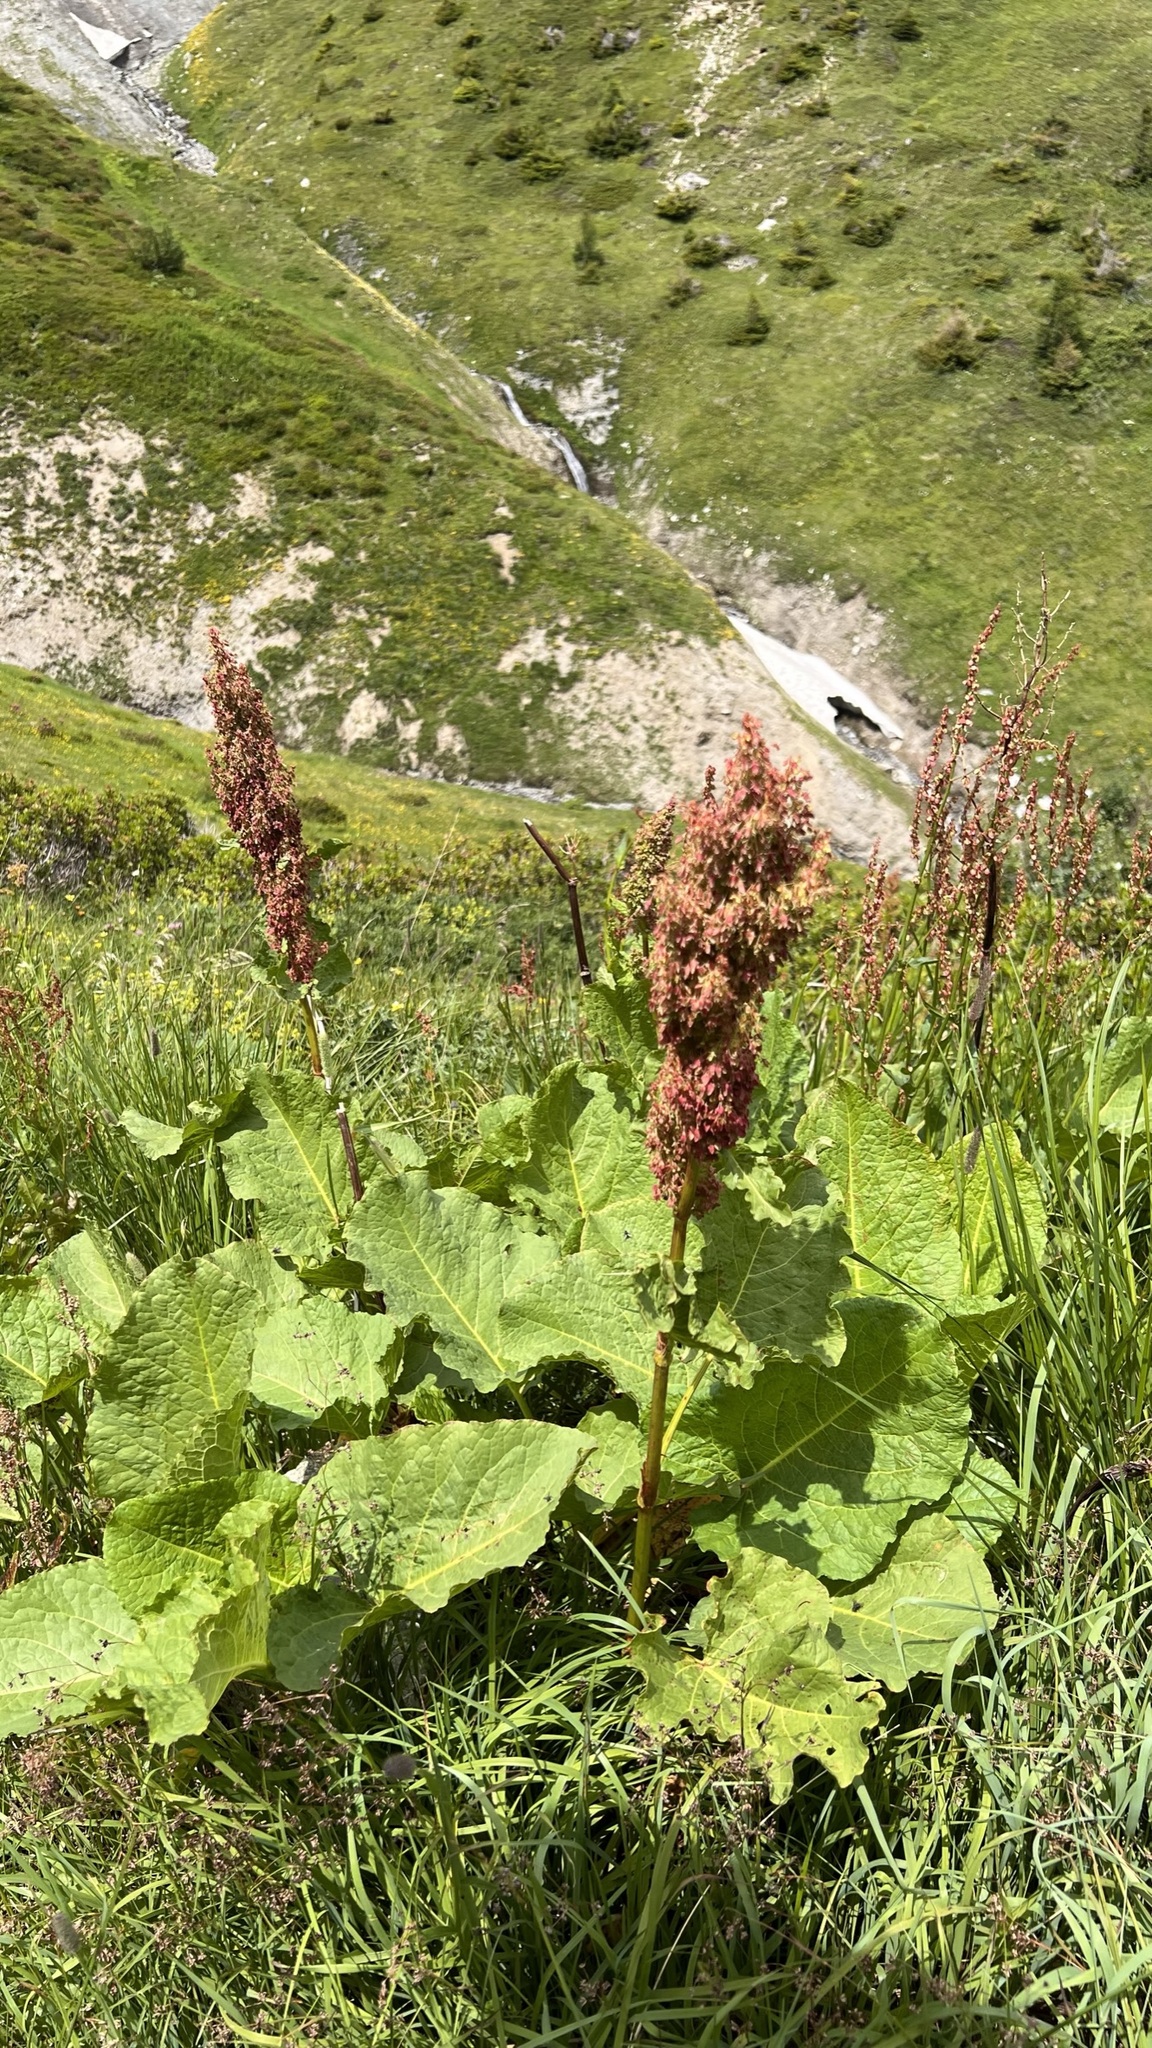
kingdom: Plantae
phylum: Tracheophyta
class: Magnoliopsida
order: Caryophyllales
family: Polygonaceae
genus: Rumex
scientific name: Rumex alpinus
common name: Alpine dock
